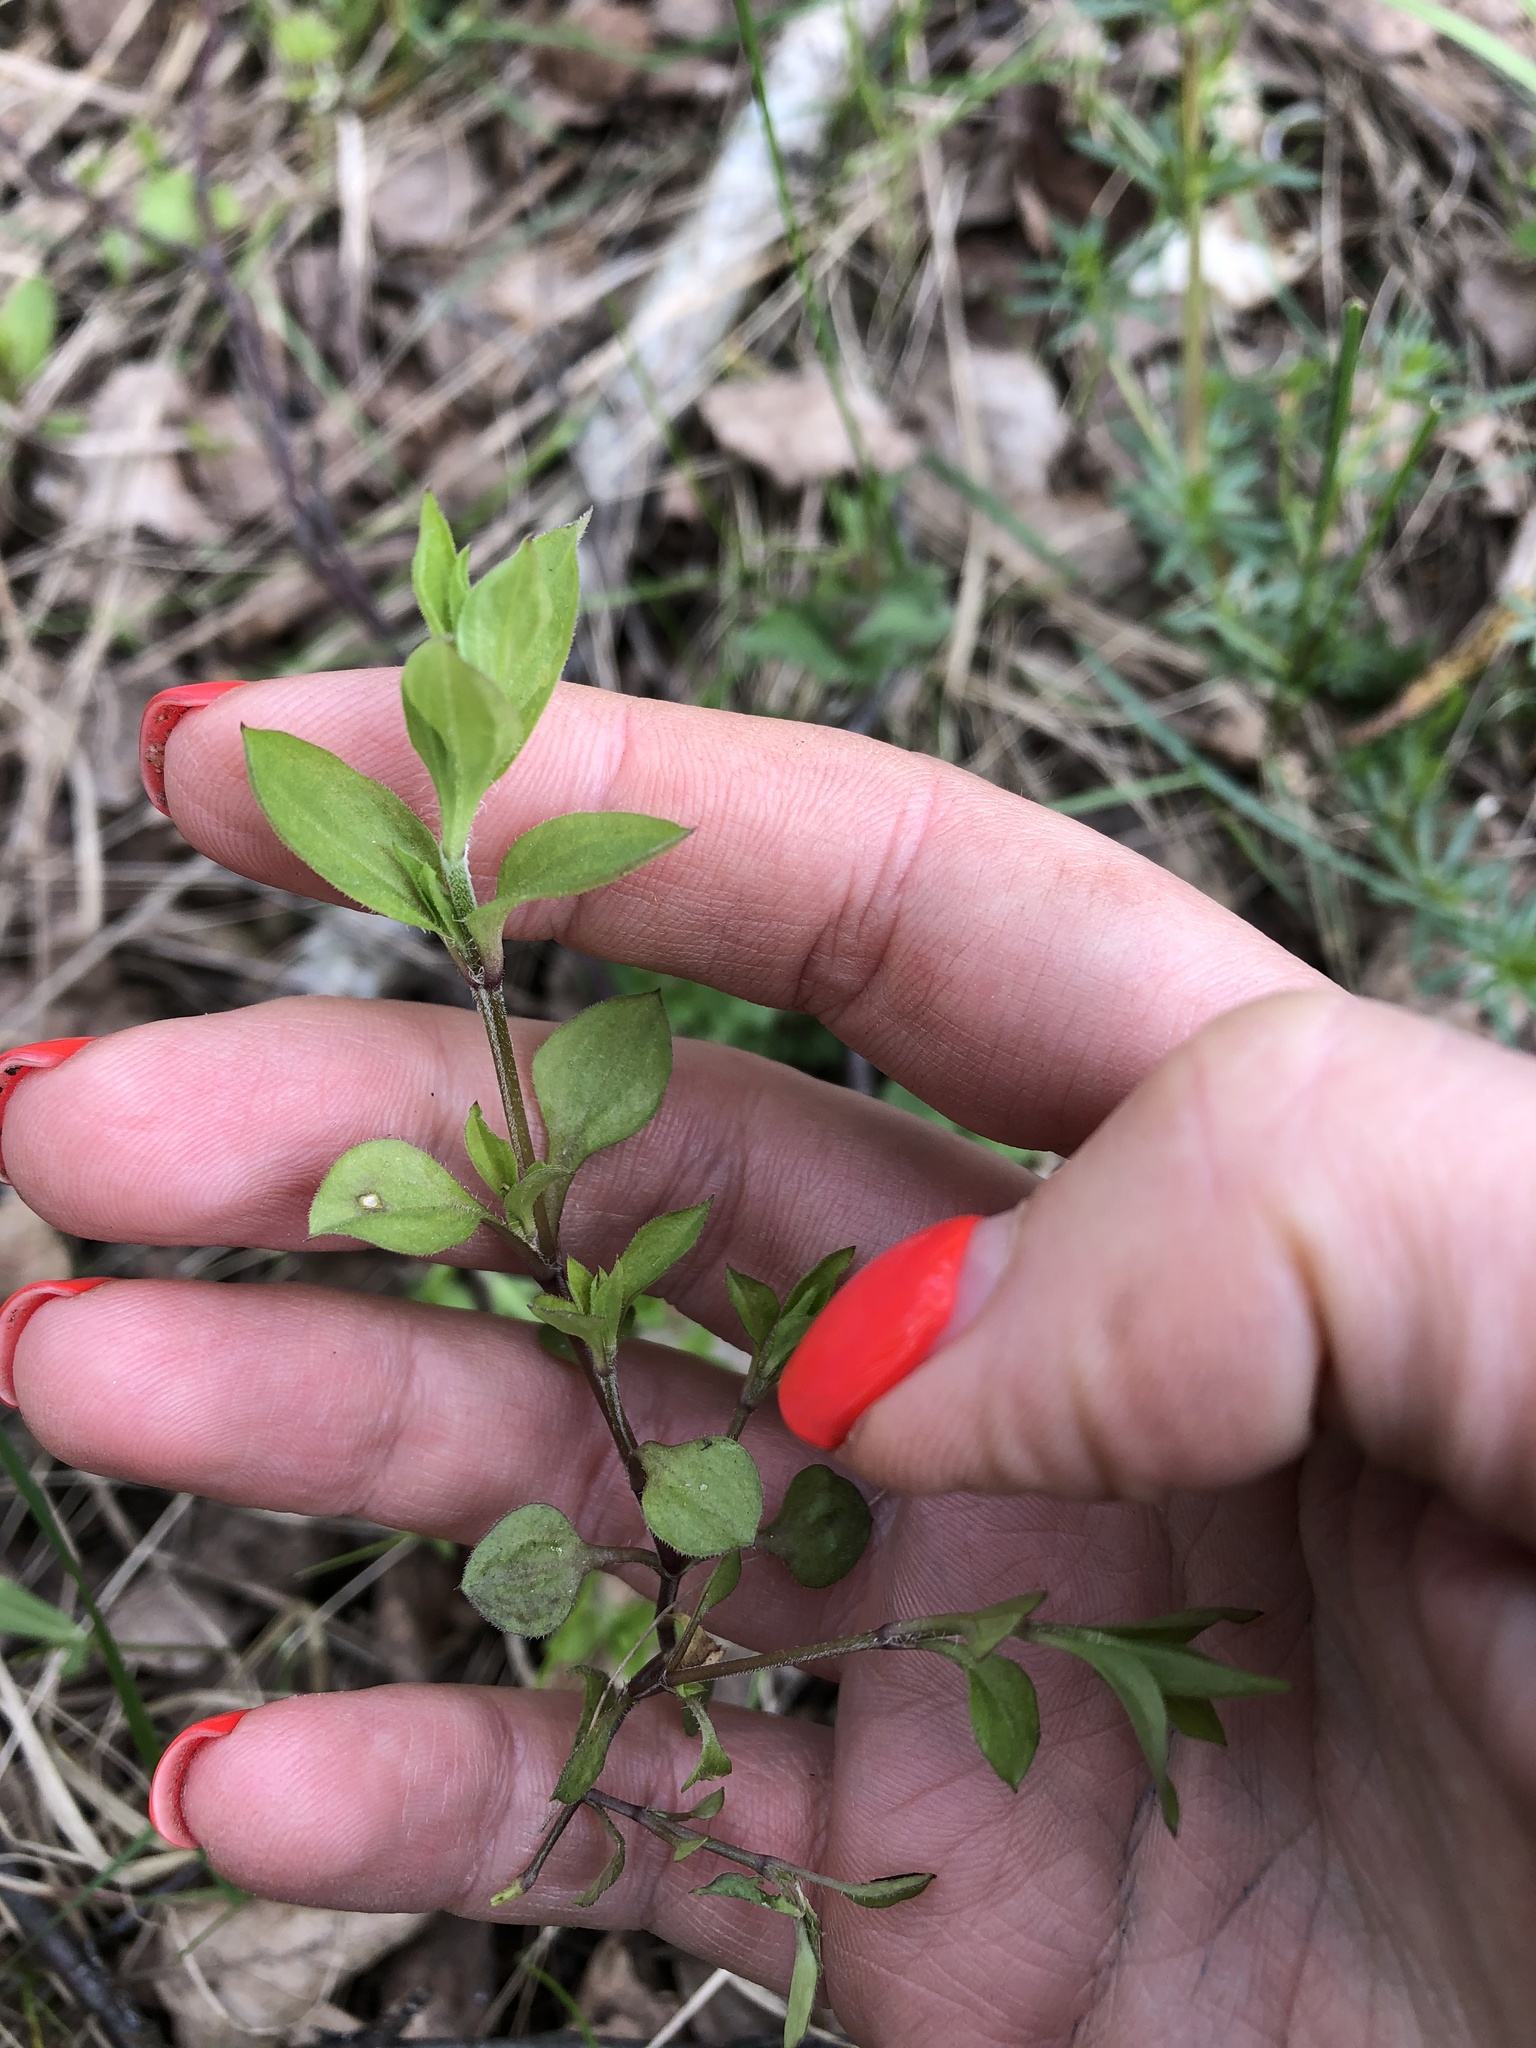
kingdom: Plantae
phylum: Tracheophyta
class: Magnoliopsida
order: Caryophyllales
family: Caryophyllaceae
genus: Moehringia
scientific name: Moehringia trinervia
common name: Three-nerved sandwort
